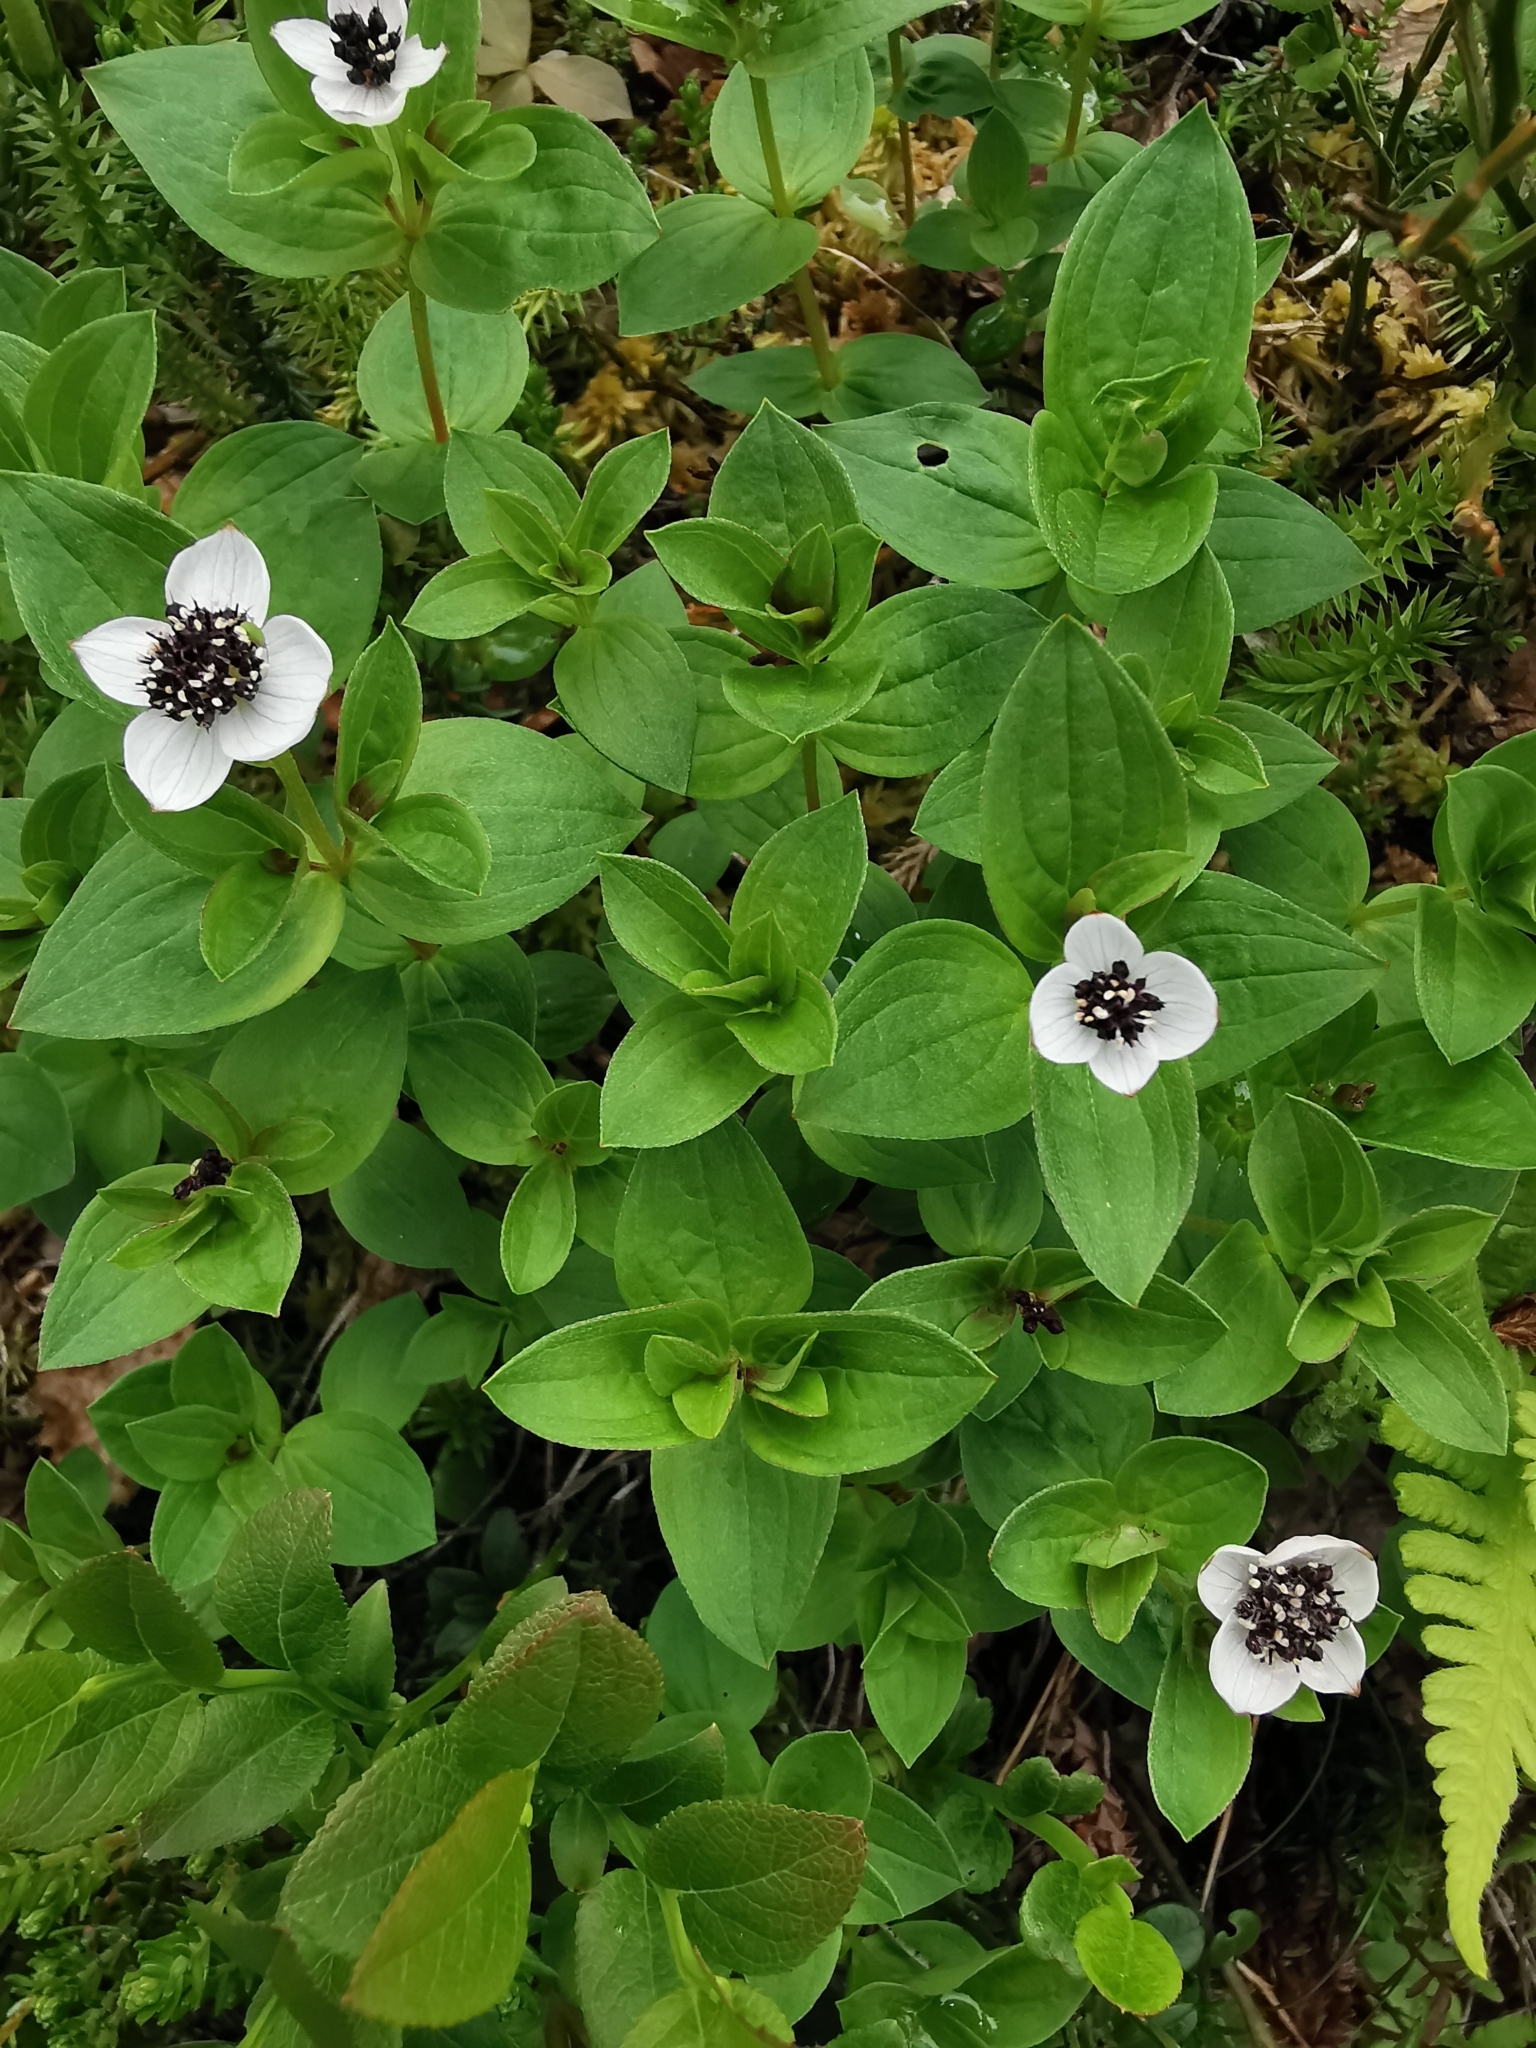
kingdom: Plantae
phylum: Tracheophyta
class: Magnoliopsida
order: Cornales
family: Cornaceae
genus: Cornus
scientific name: Cornus suecica
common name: Dwarf cornel
